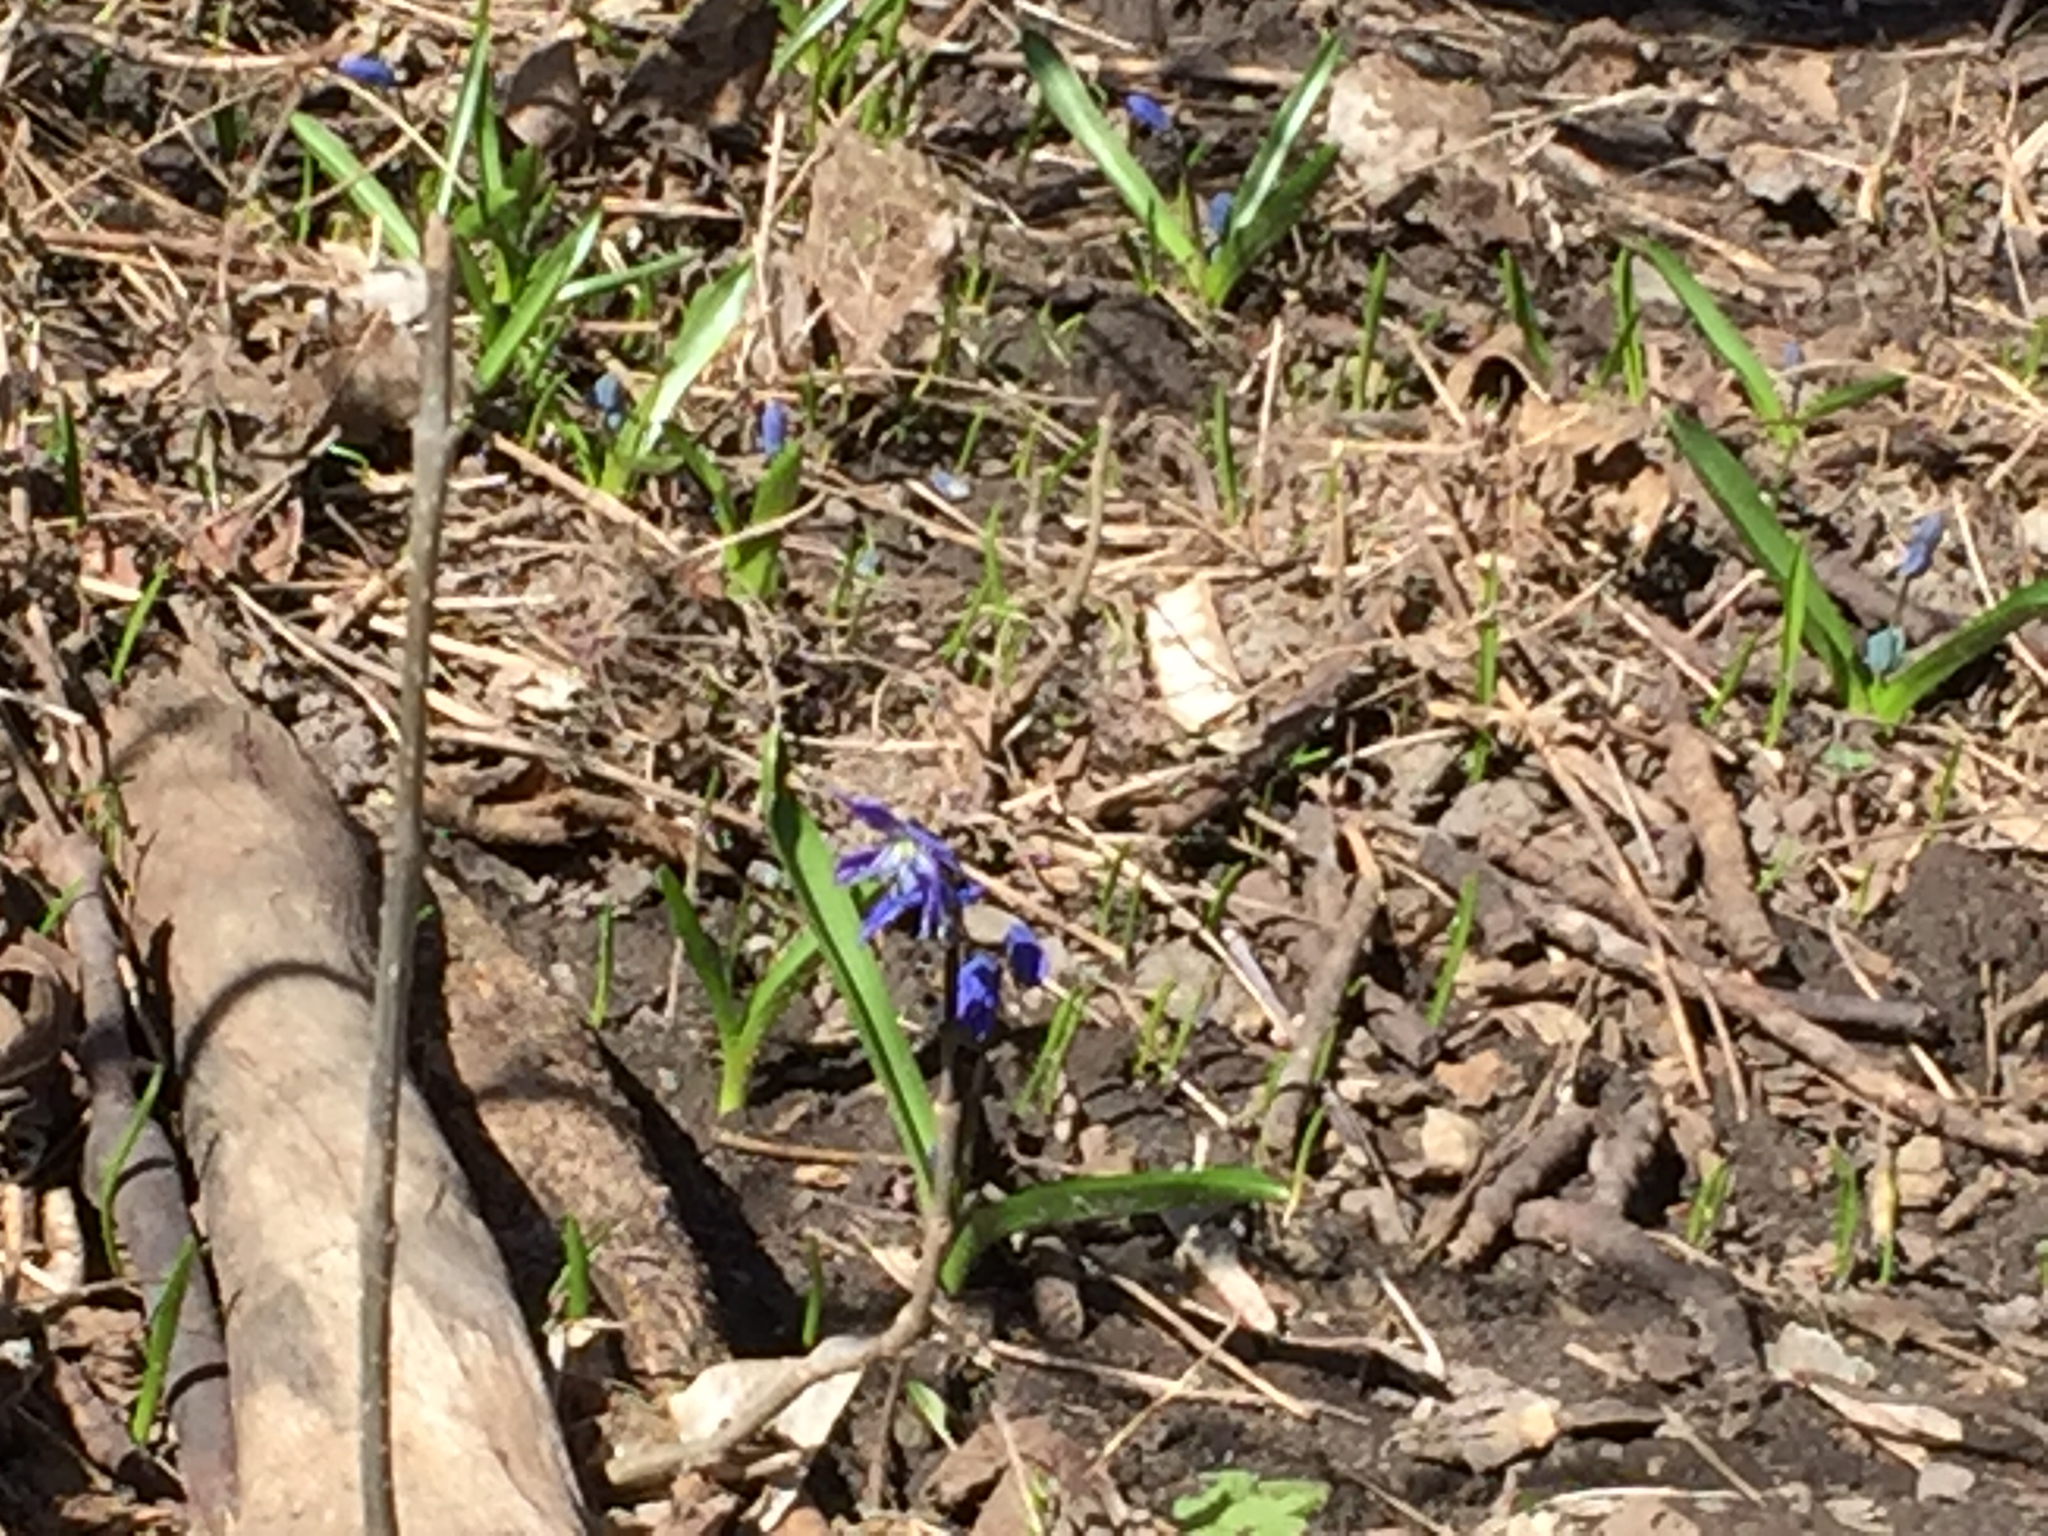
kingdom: Plantae
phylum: Tracheophyta
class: Liliopsida
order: Asparagales
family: Asparagaceae
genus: Scilla
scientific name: Scilla siberica
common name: Siberian squill
